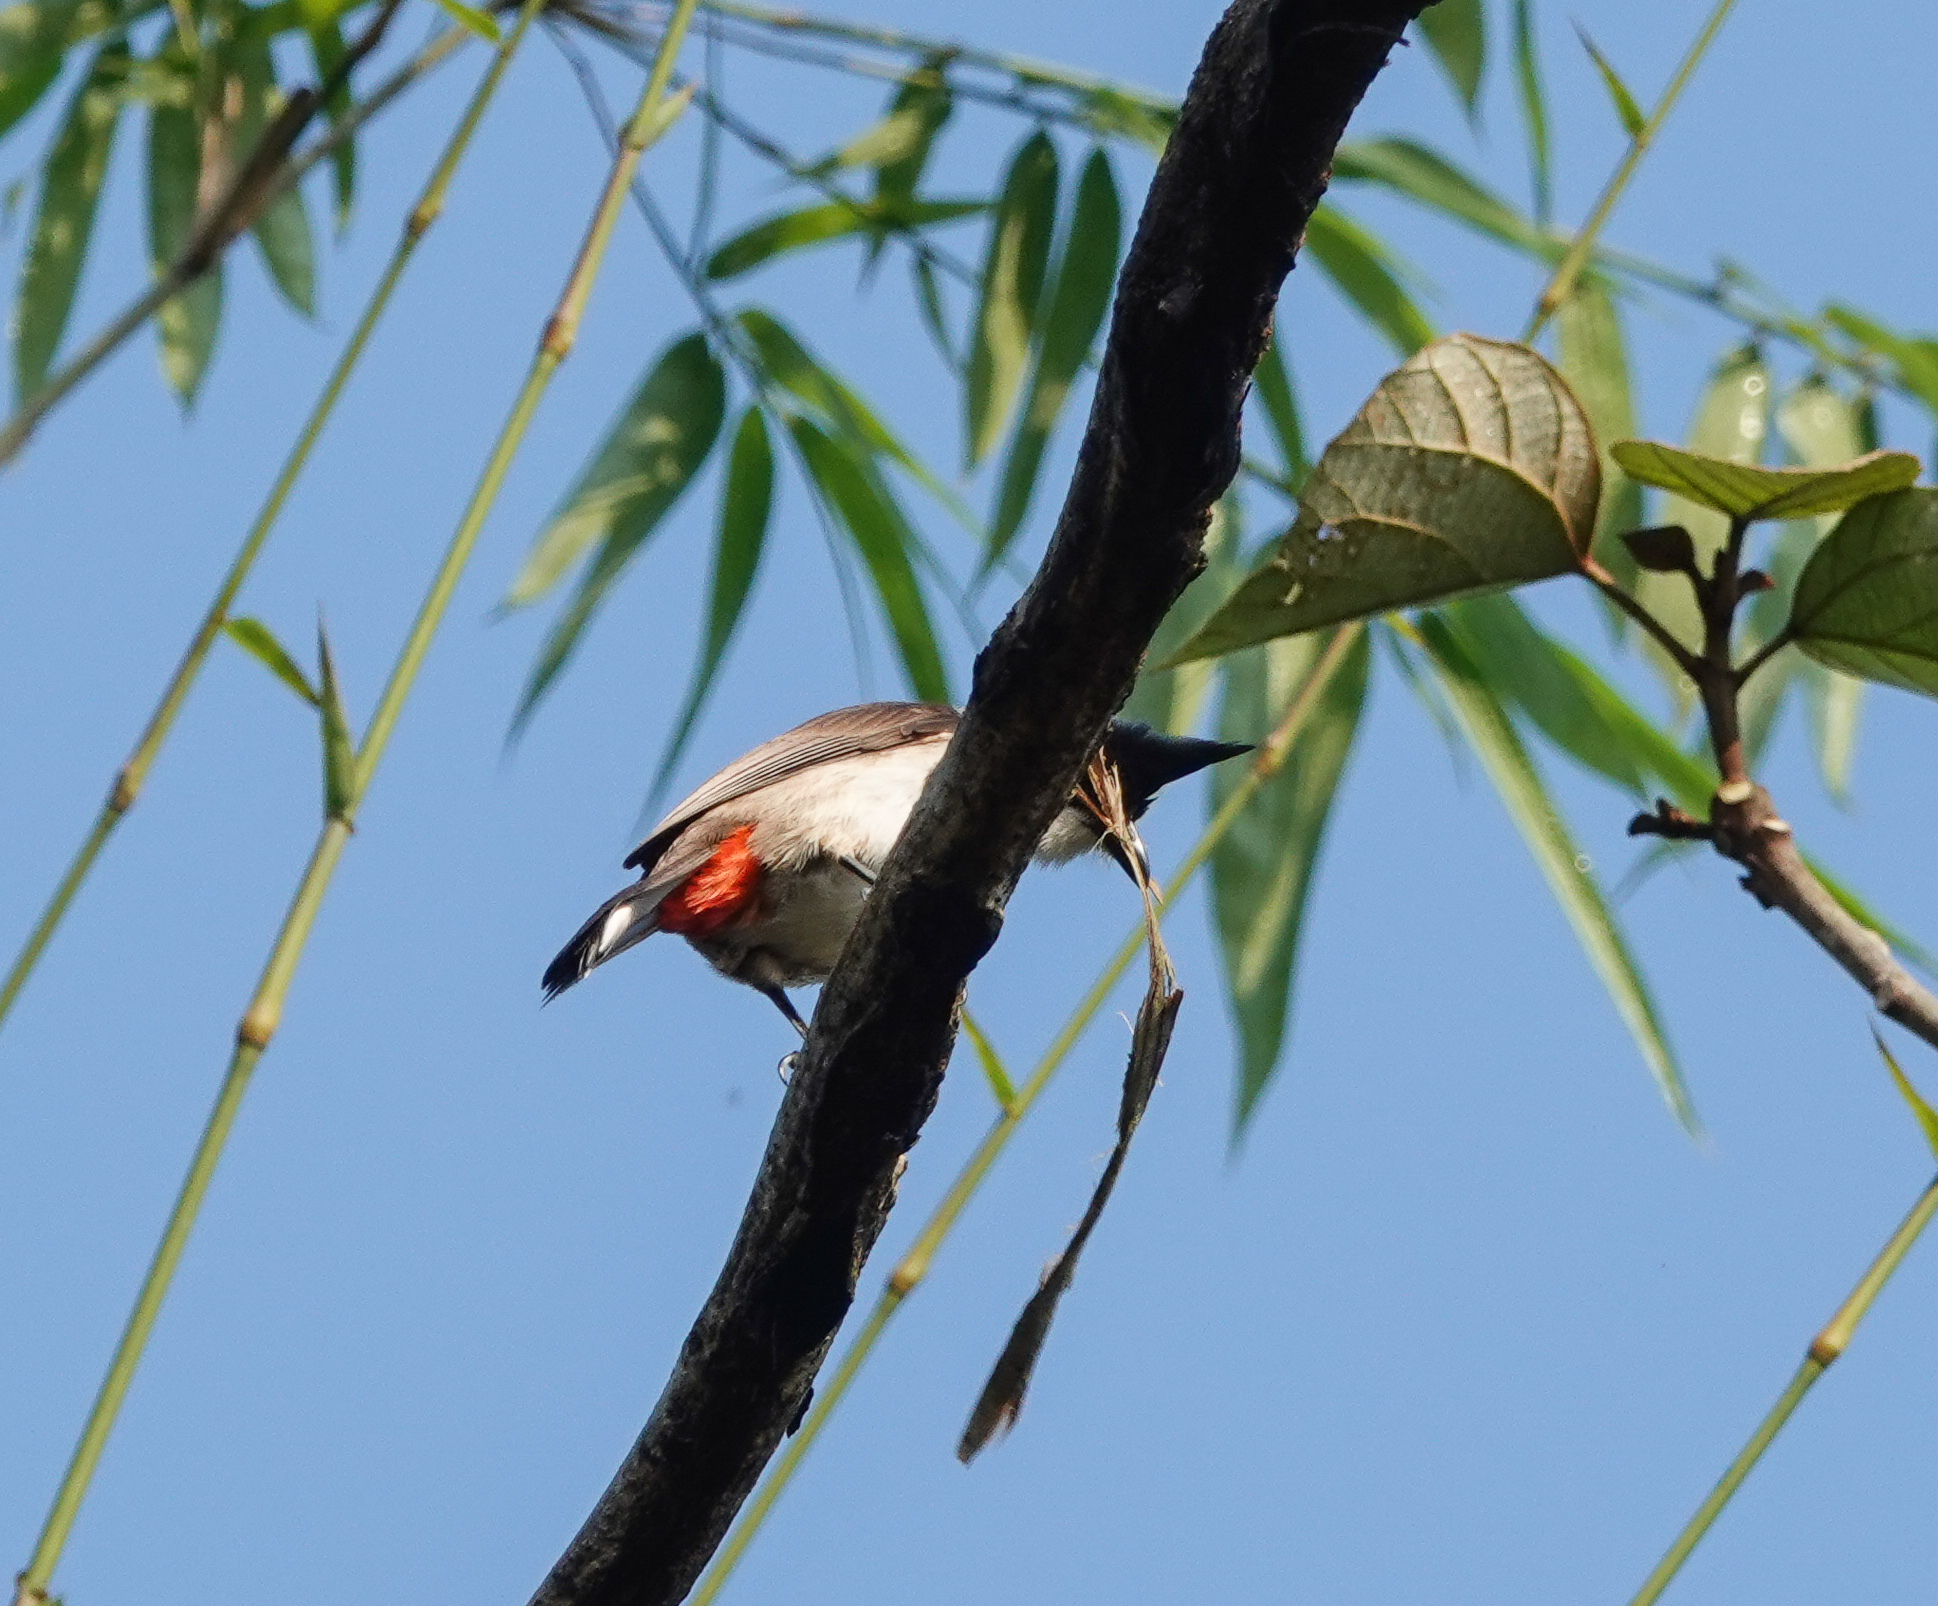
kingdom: Animalia
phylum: Chordata
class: Aves
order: Passeriformes
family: Pycnonotidae
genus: Pycnonotus
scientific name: Pycnonotus jocosus
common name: Red-whiskered bulbul
